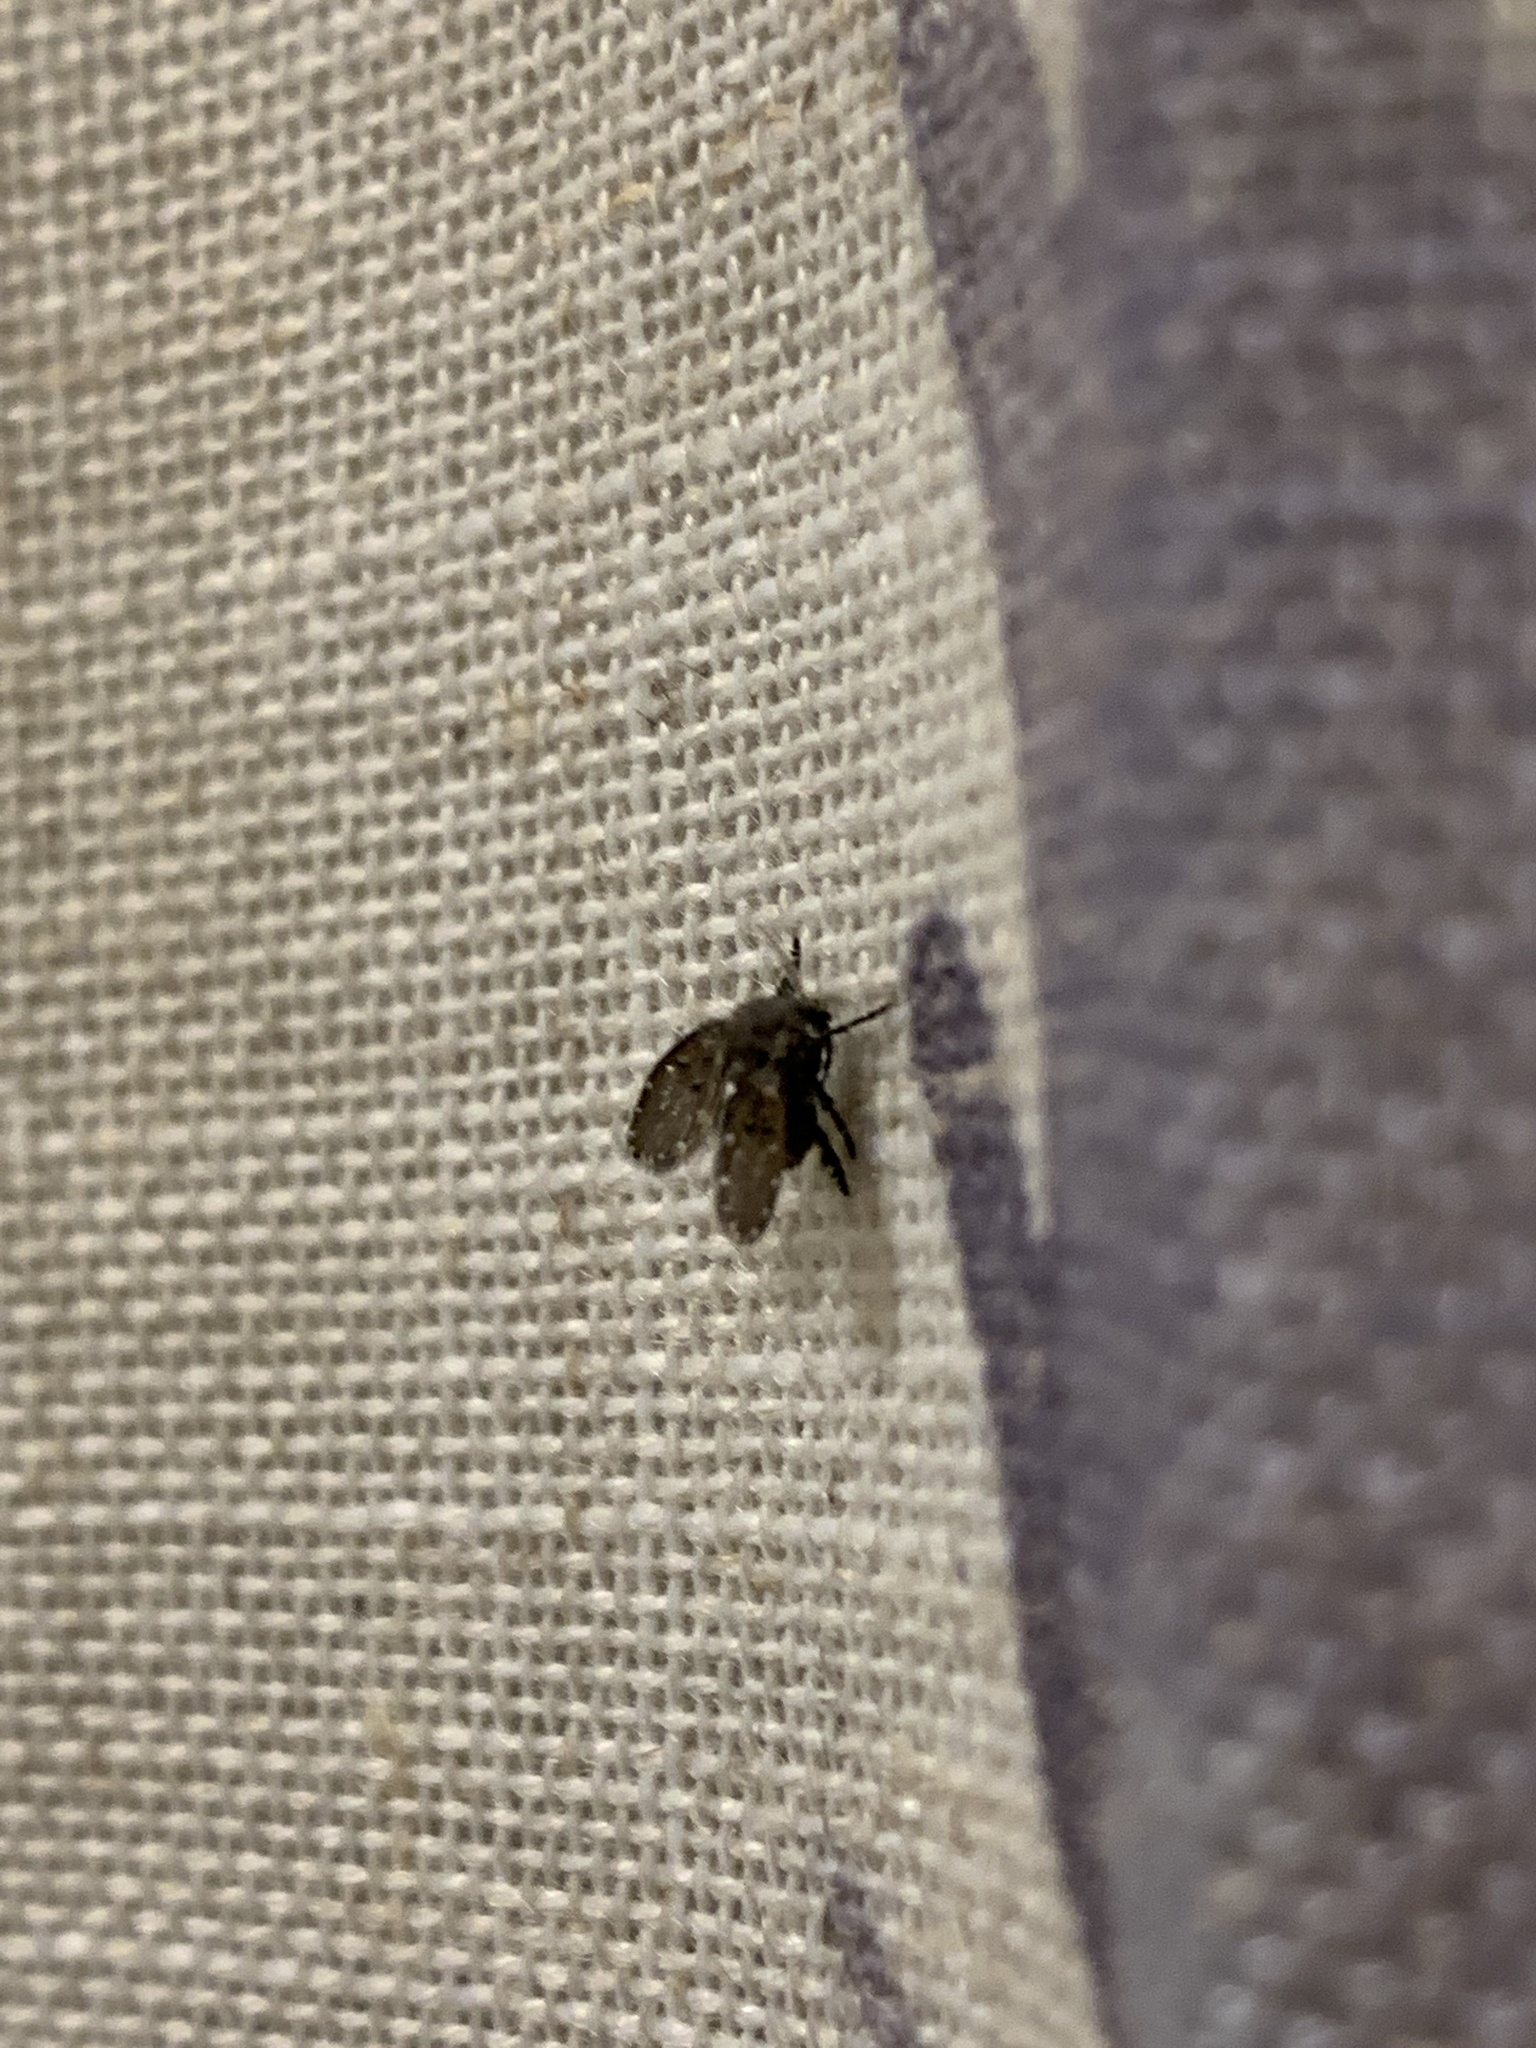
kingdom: Animalia
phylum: Arthropoda
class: Insecta
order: Diptera
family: Psychodidae
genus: Clogmia
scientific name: Clogmia albipunctatus
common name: White-spotted moth fly
